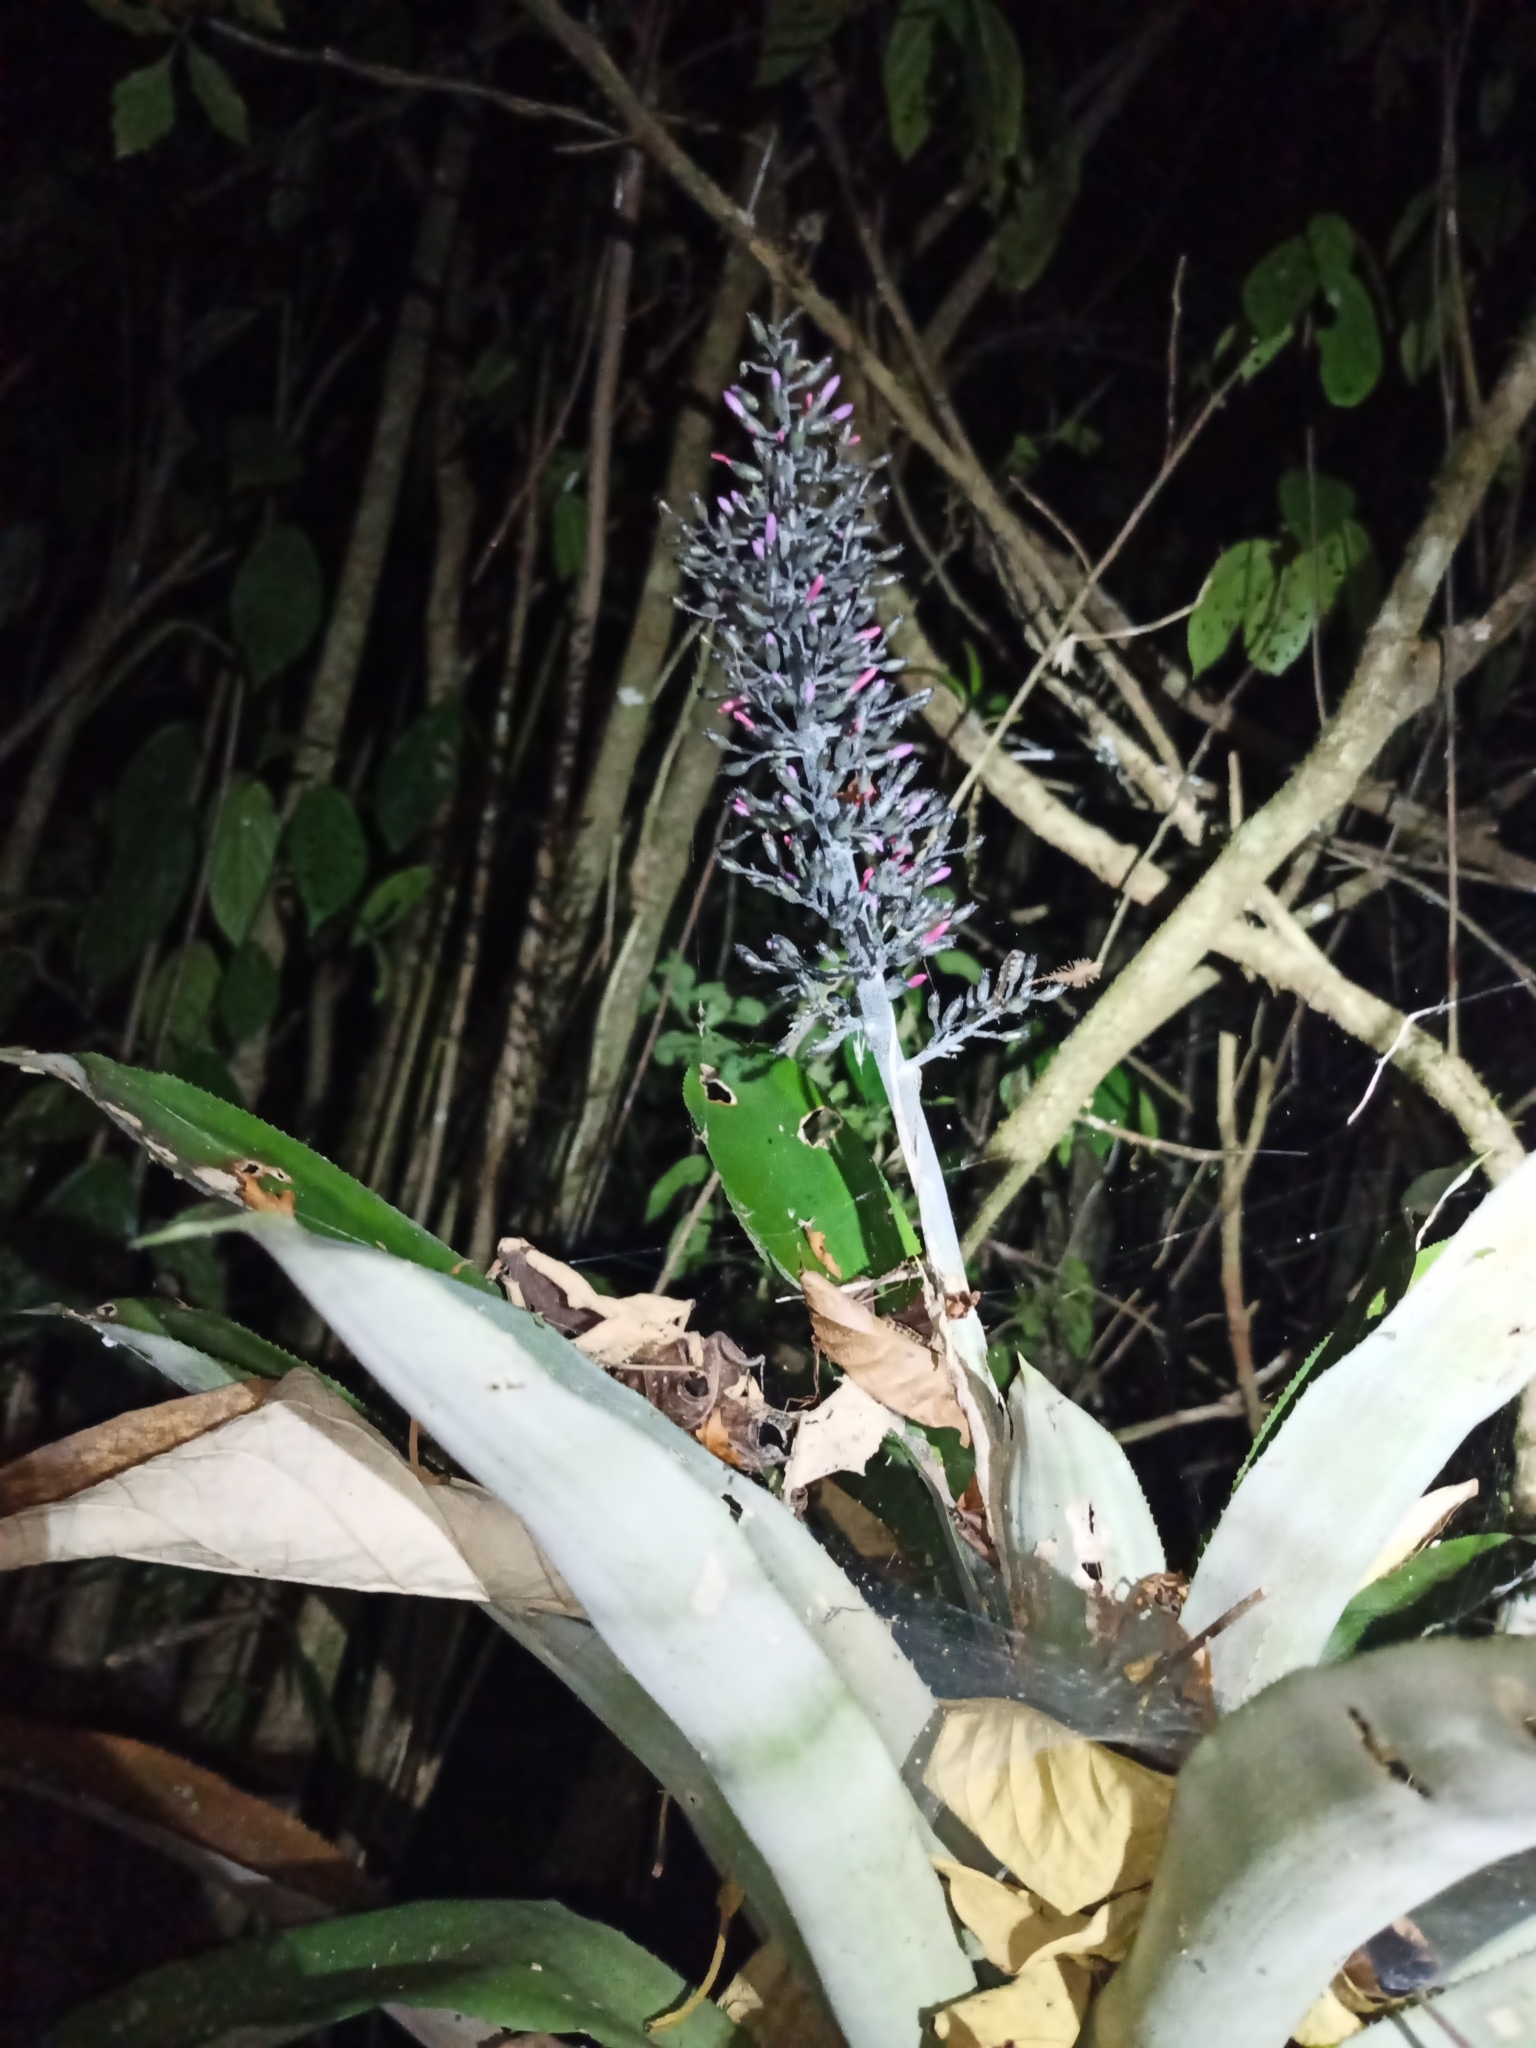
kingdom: Plantae
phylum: Tracheophyta
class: Liliopsida
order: Poales
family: Bromeliaceae
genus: Aechmea
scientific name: Aechmea lueddemanniana
